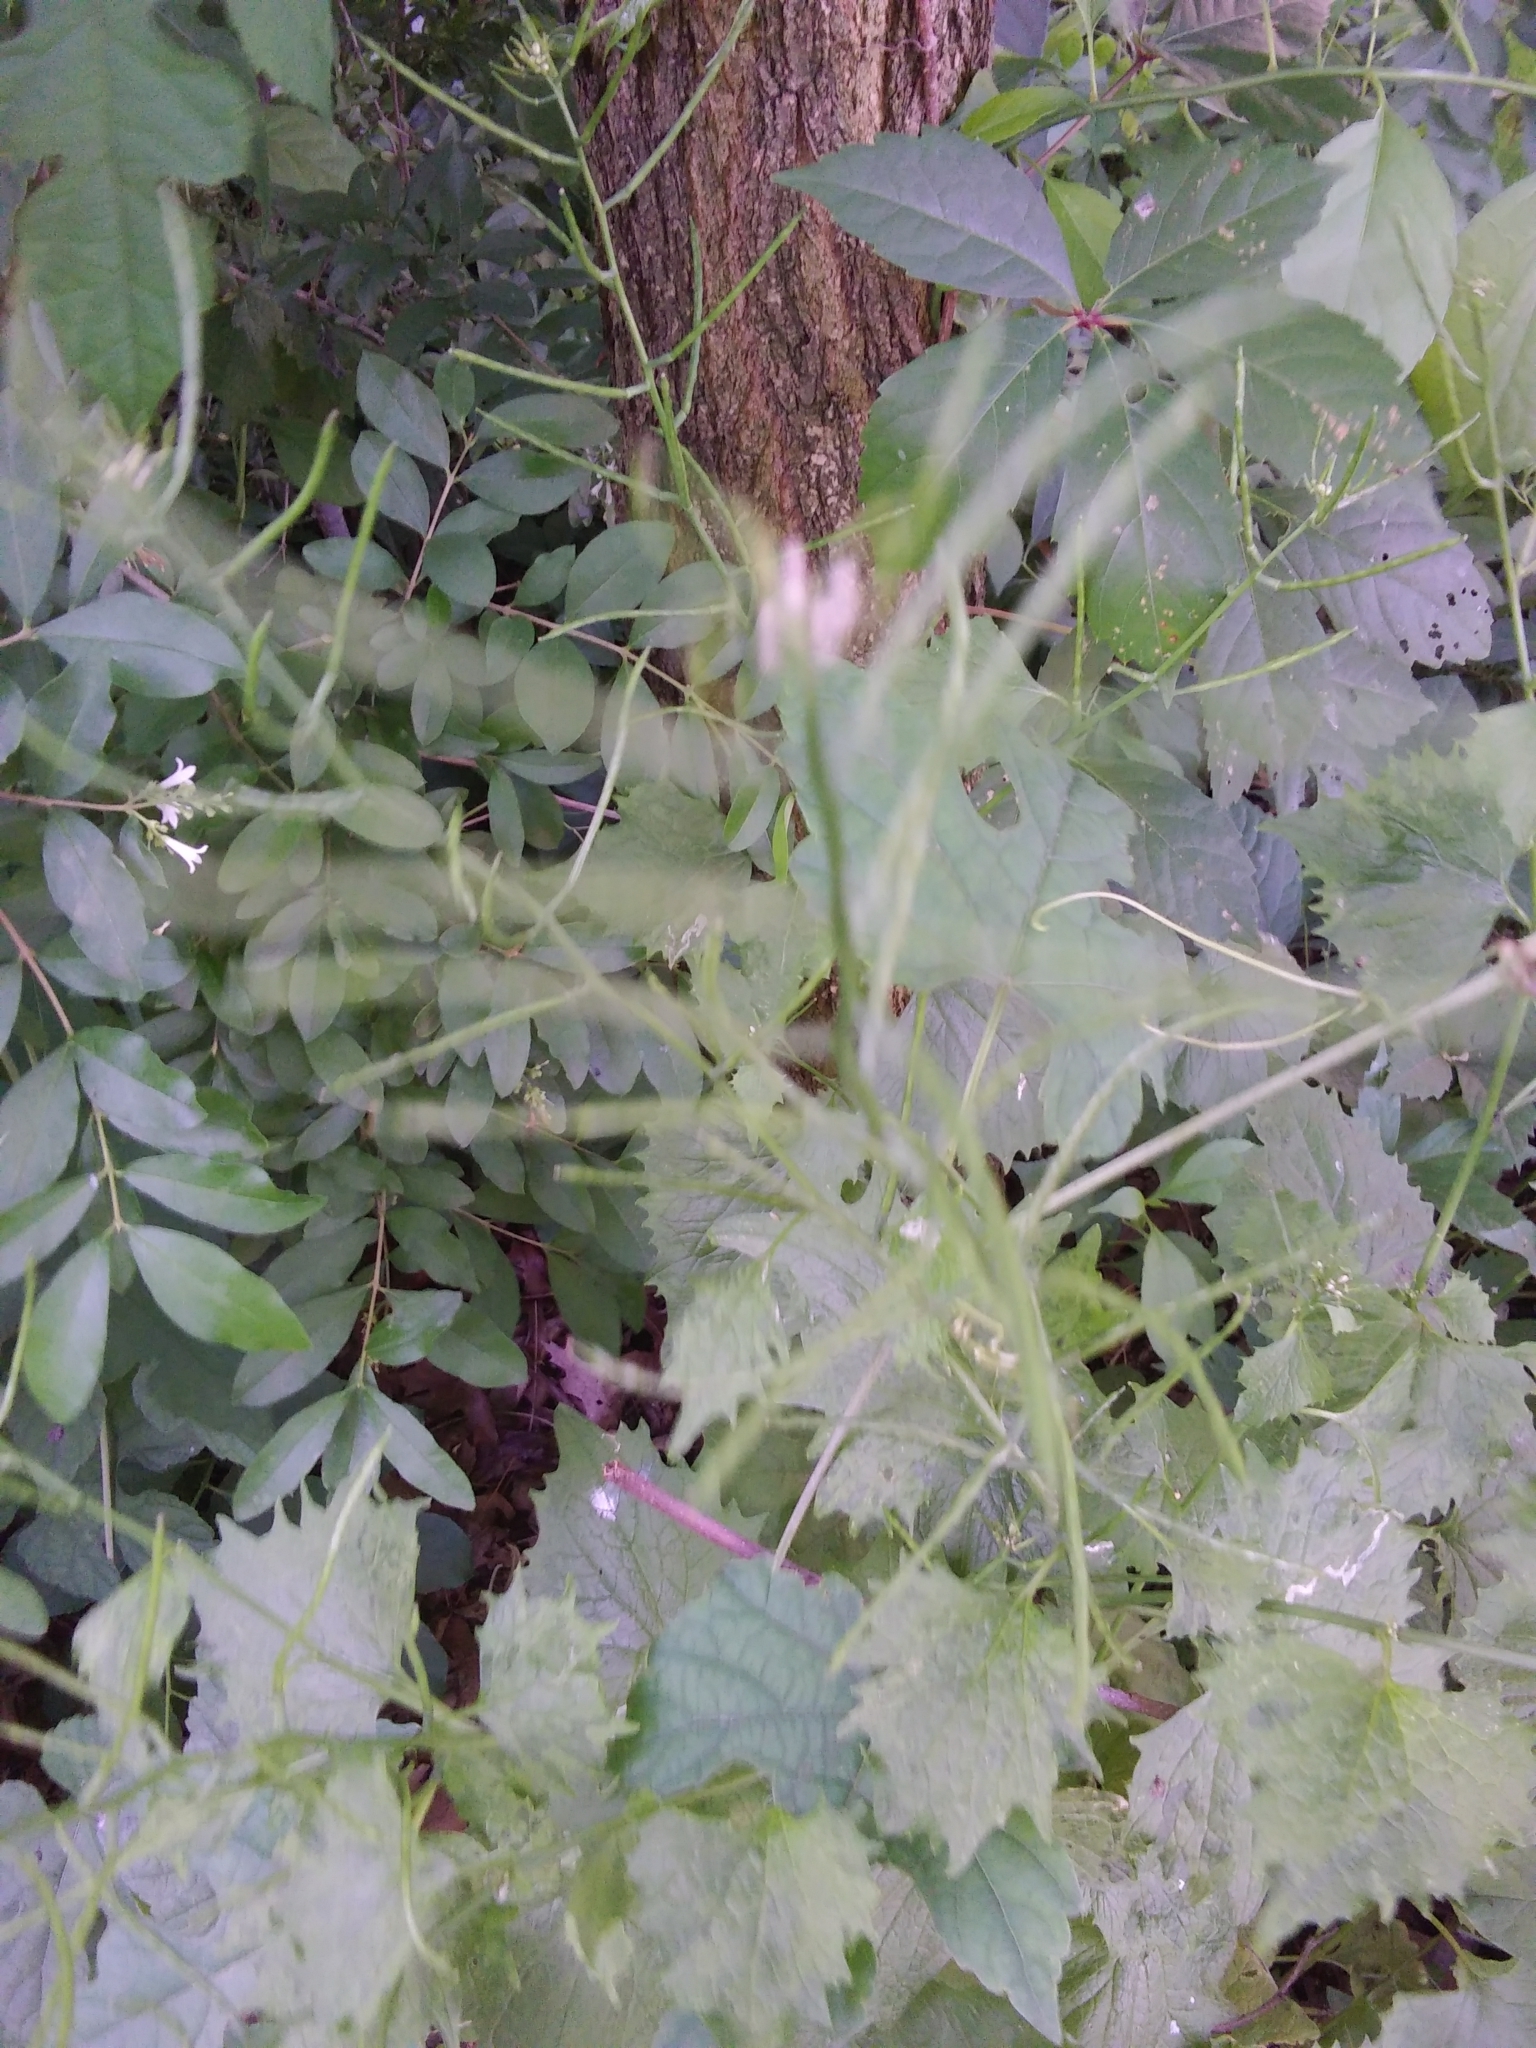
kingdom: Plantae
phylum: Tracheophyta
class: Magnoliopsida
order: Brassicales
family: Brassicaceae
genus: Alliaria
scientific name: Alliaria petiolata
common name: Garlic mustard
